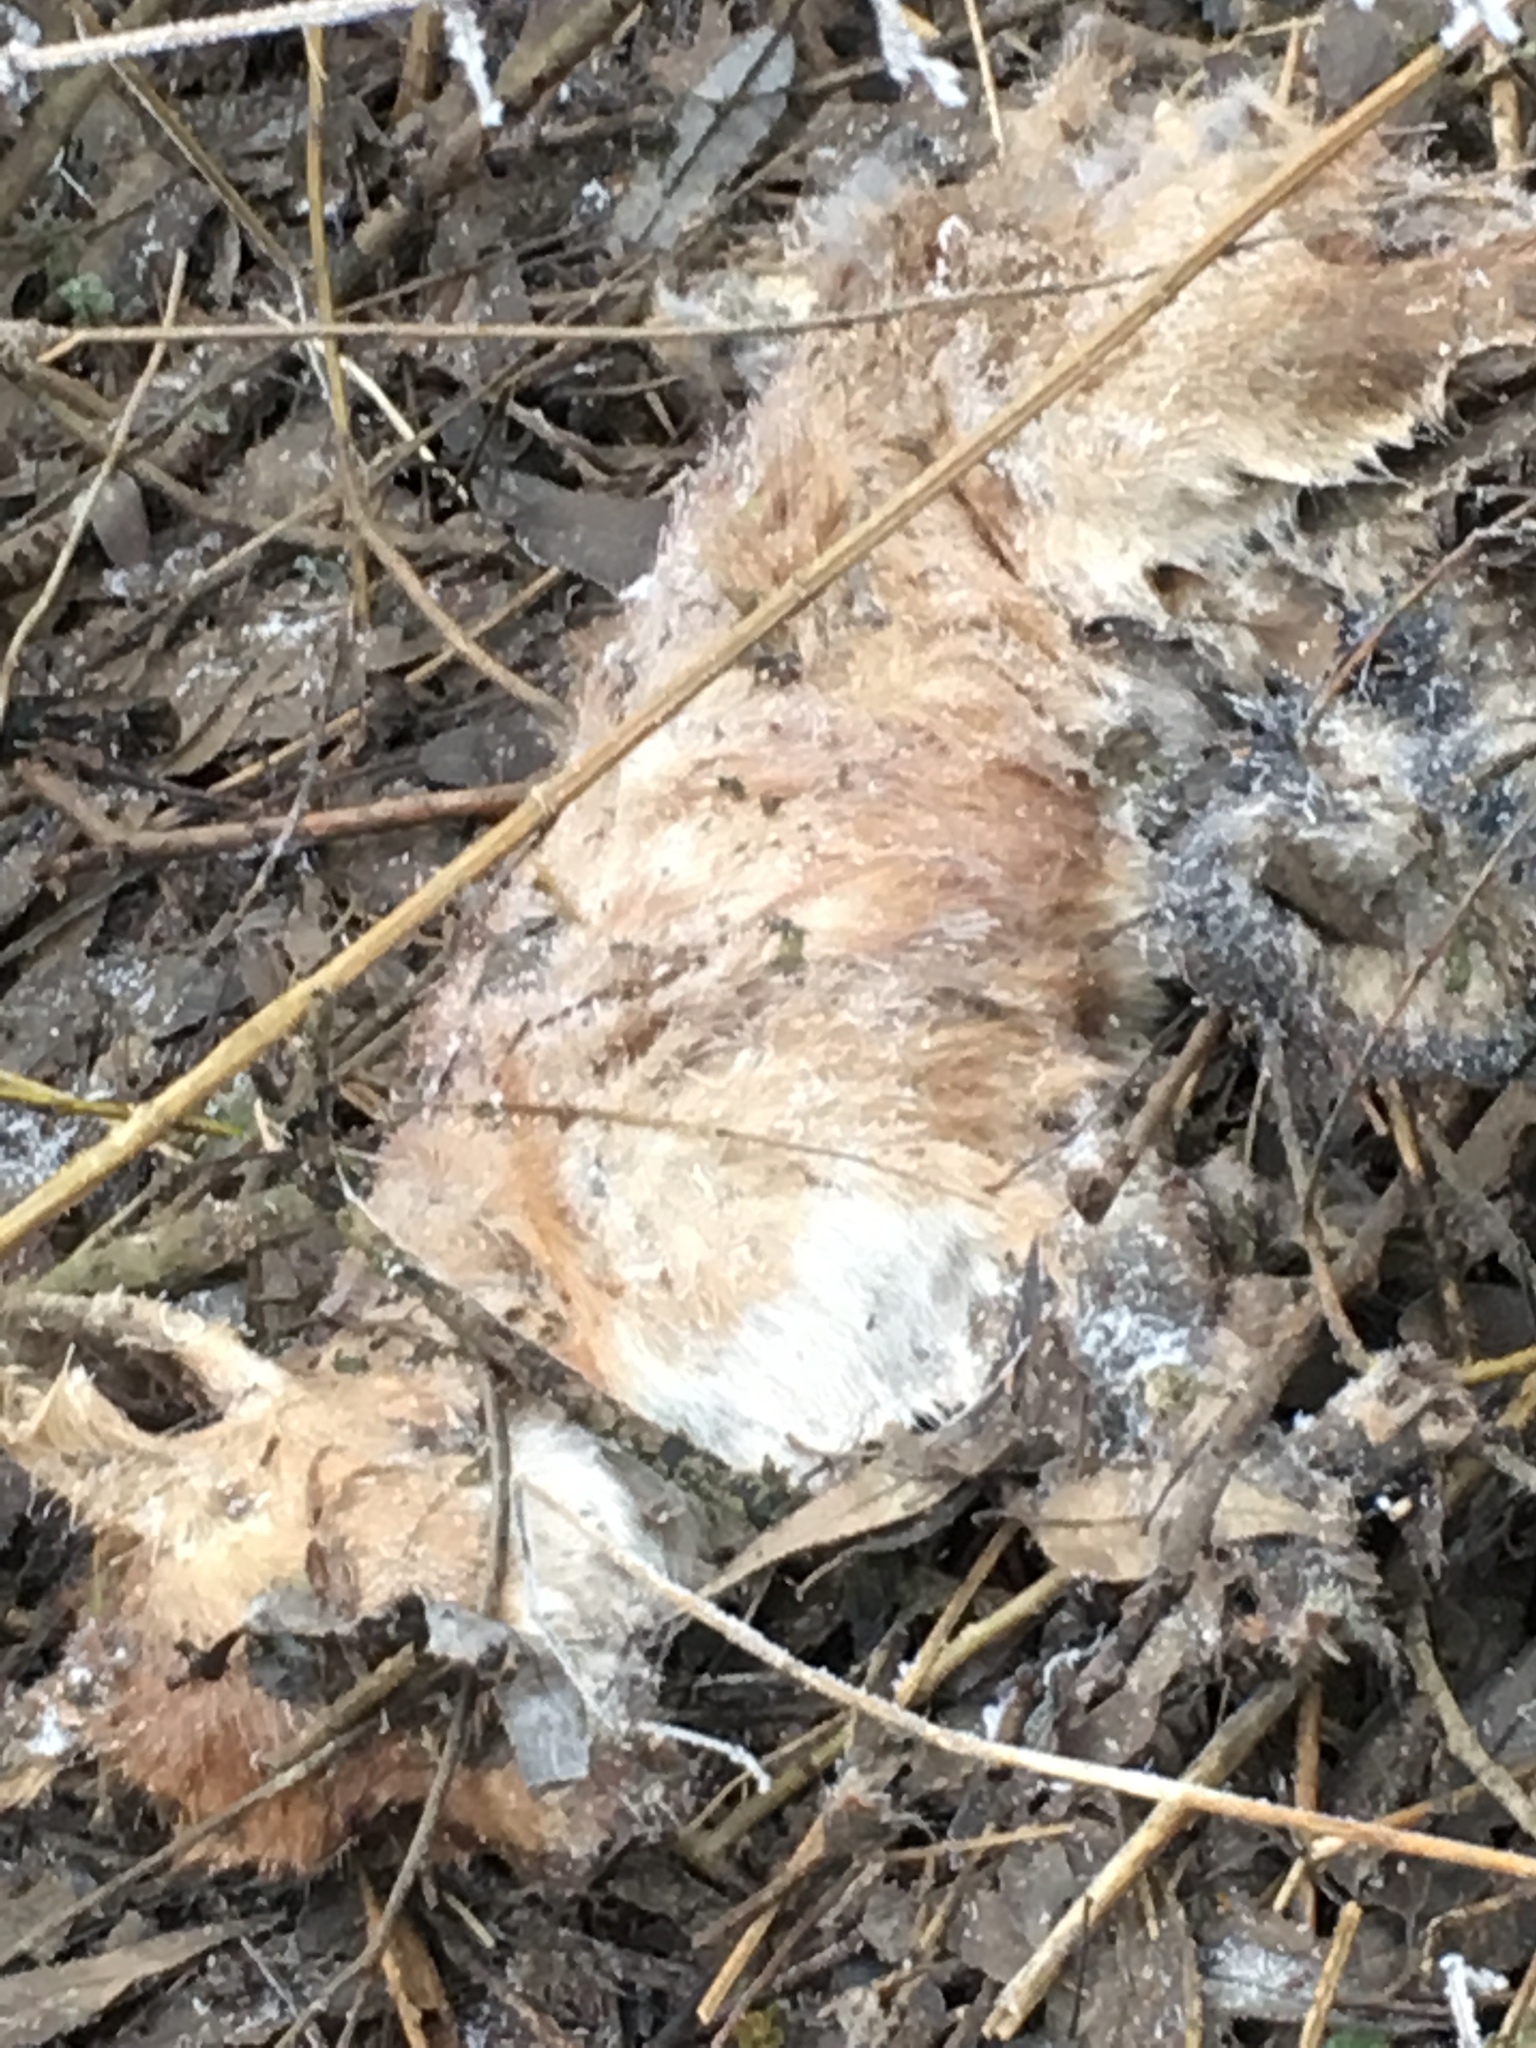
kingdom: Animalia
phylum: Chordata
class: Mammalia
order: Carnivora
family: Canidae
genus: Vulpes
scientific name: Vulpes vulpes
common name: Red fox
